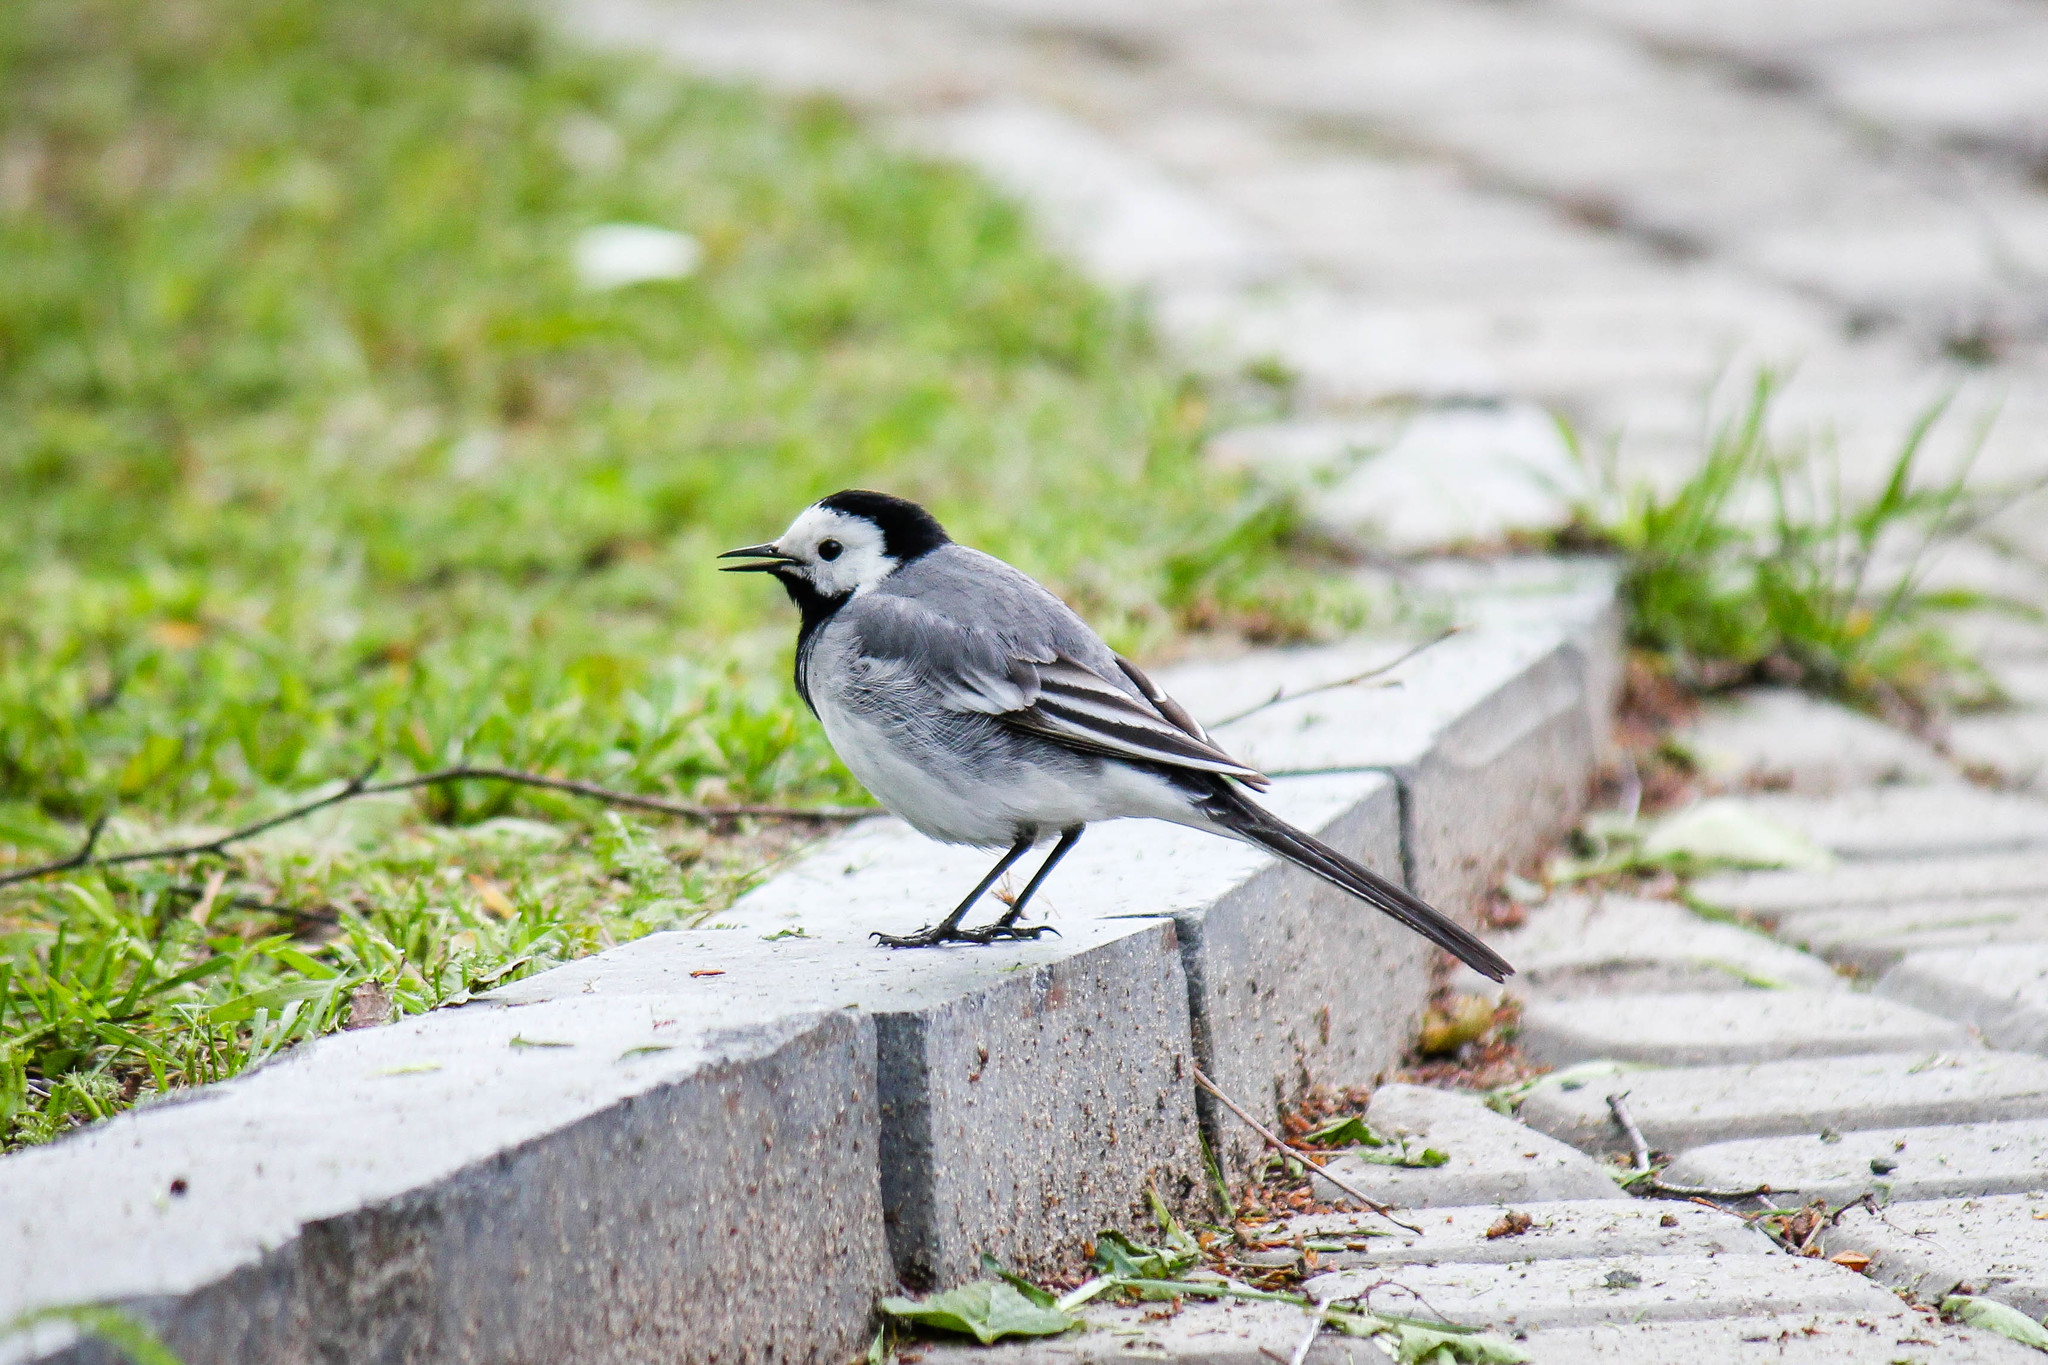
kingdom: Animalia
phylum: Chordata
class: Aves
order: Passeriformes
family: Motacillidae
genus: Motacilla
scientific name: Motacilla alba
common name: White wagtail
